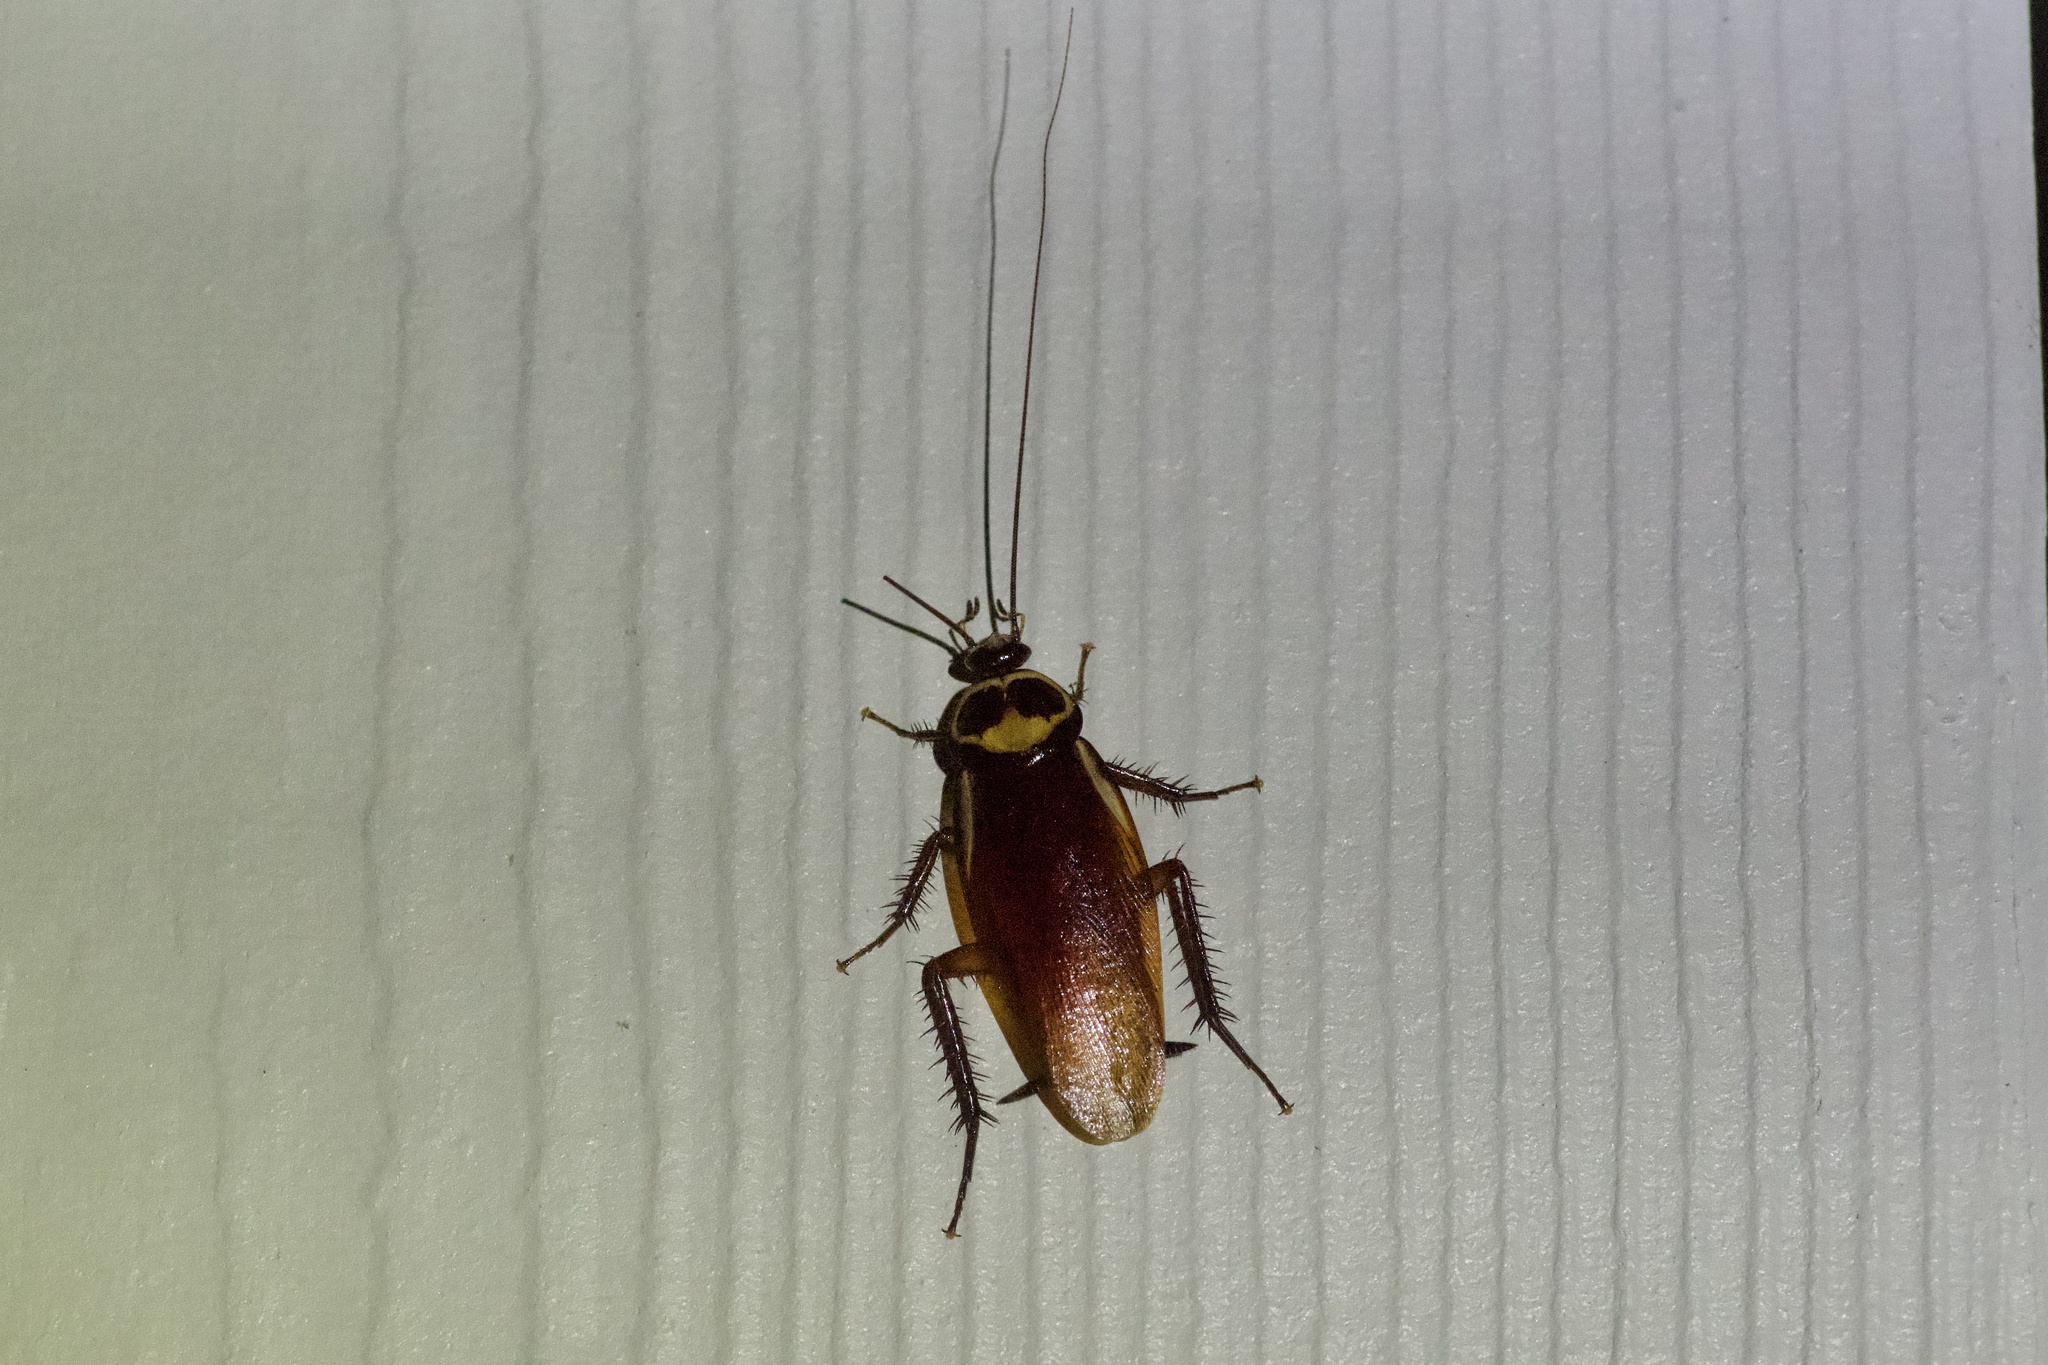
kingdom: Animalia
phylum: Arthropoda
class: Insecta
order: Blattodea
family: Blattidae
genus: Periplaneta
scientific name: Periplaneta australasiae
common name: Australian cockroach
